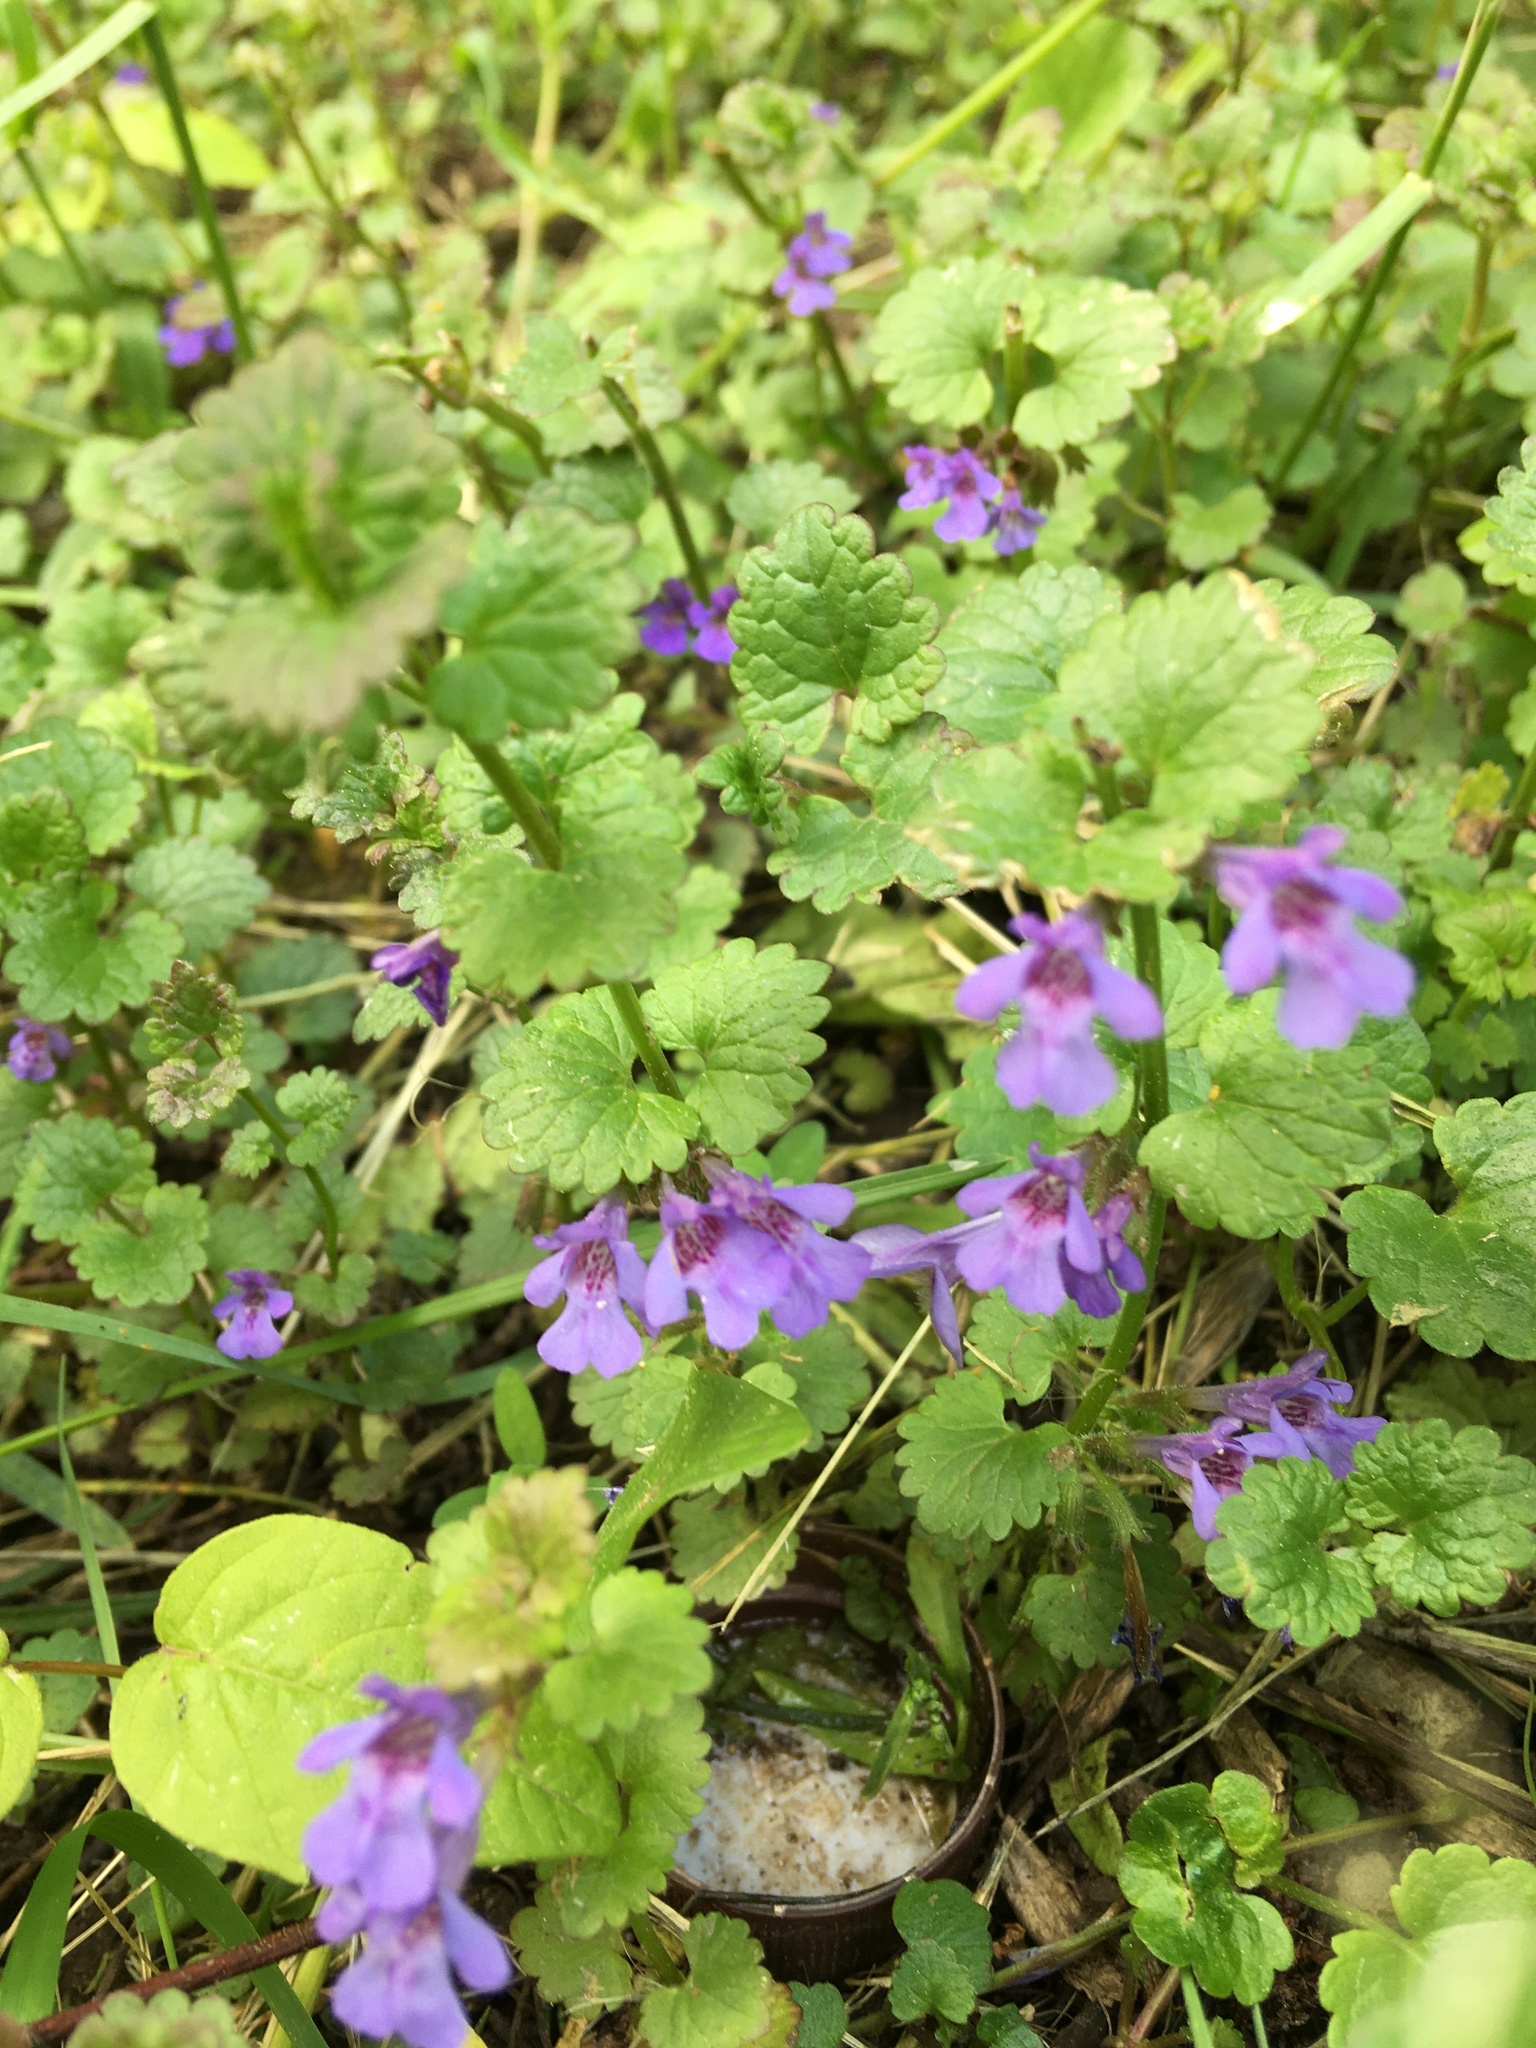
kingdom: Plantae
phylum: Tracheophyta
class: Magnoliopsida
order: Lamiales
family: Lamiaceae
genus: Glechoma
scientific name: Glechoma hederacea
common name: Ground ivy
